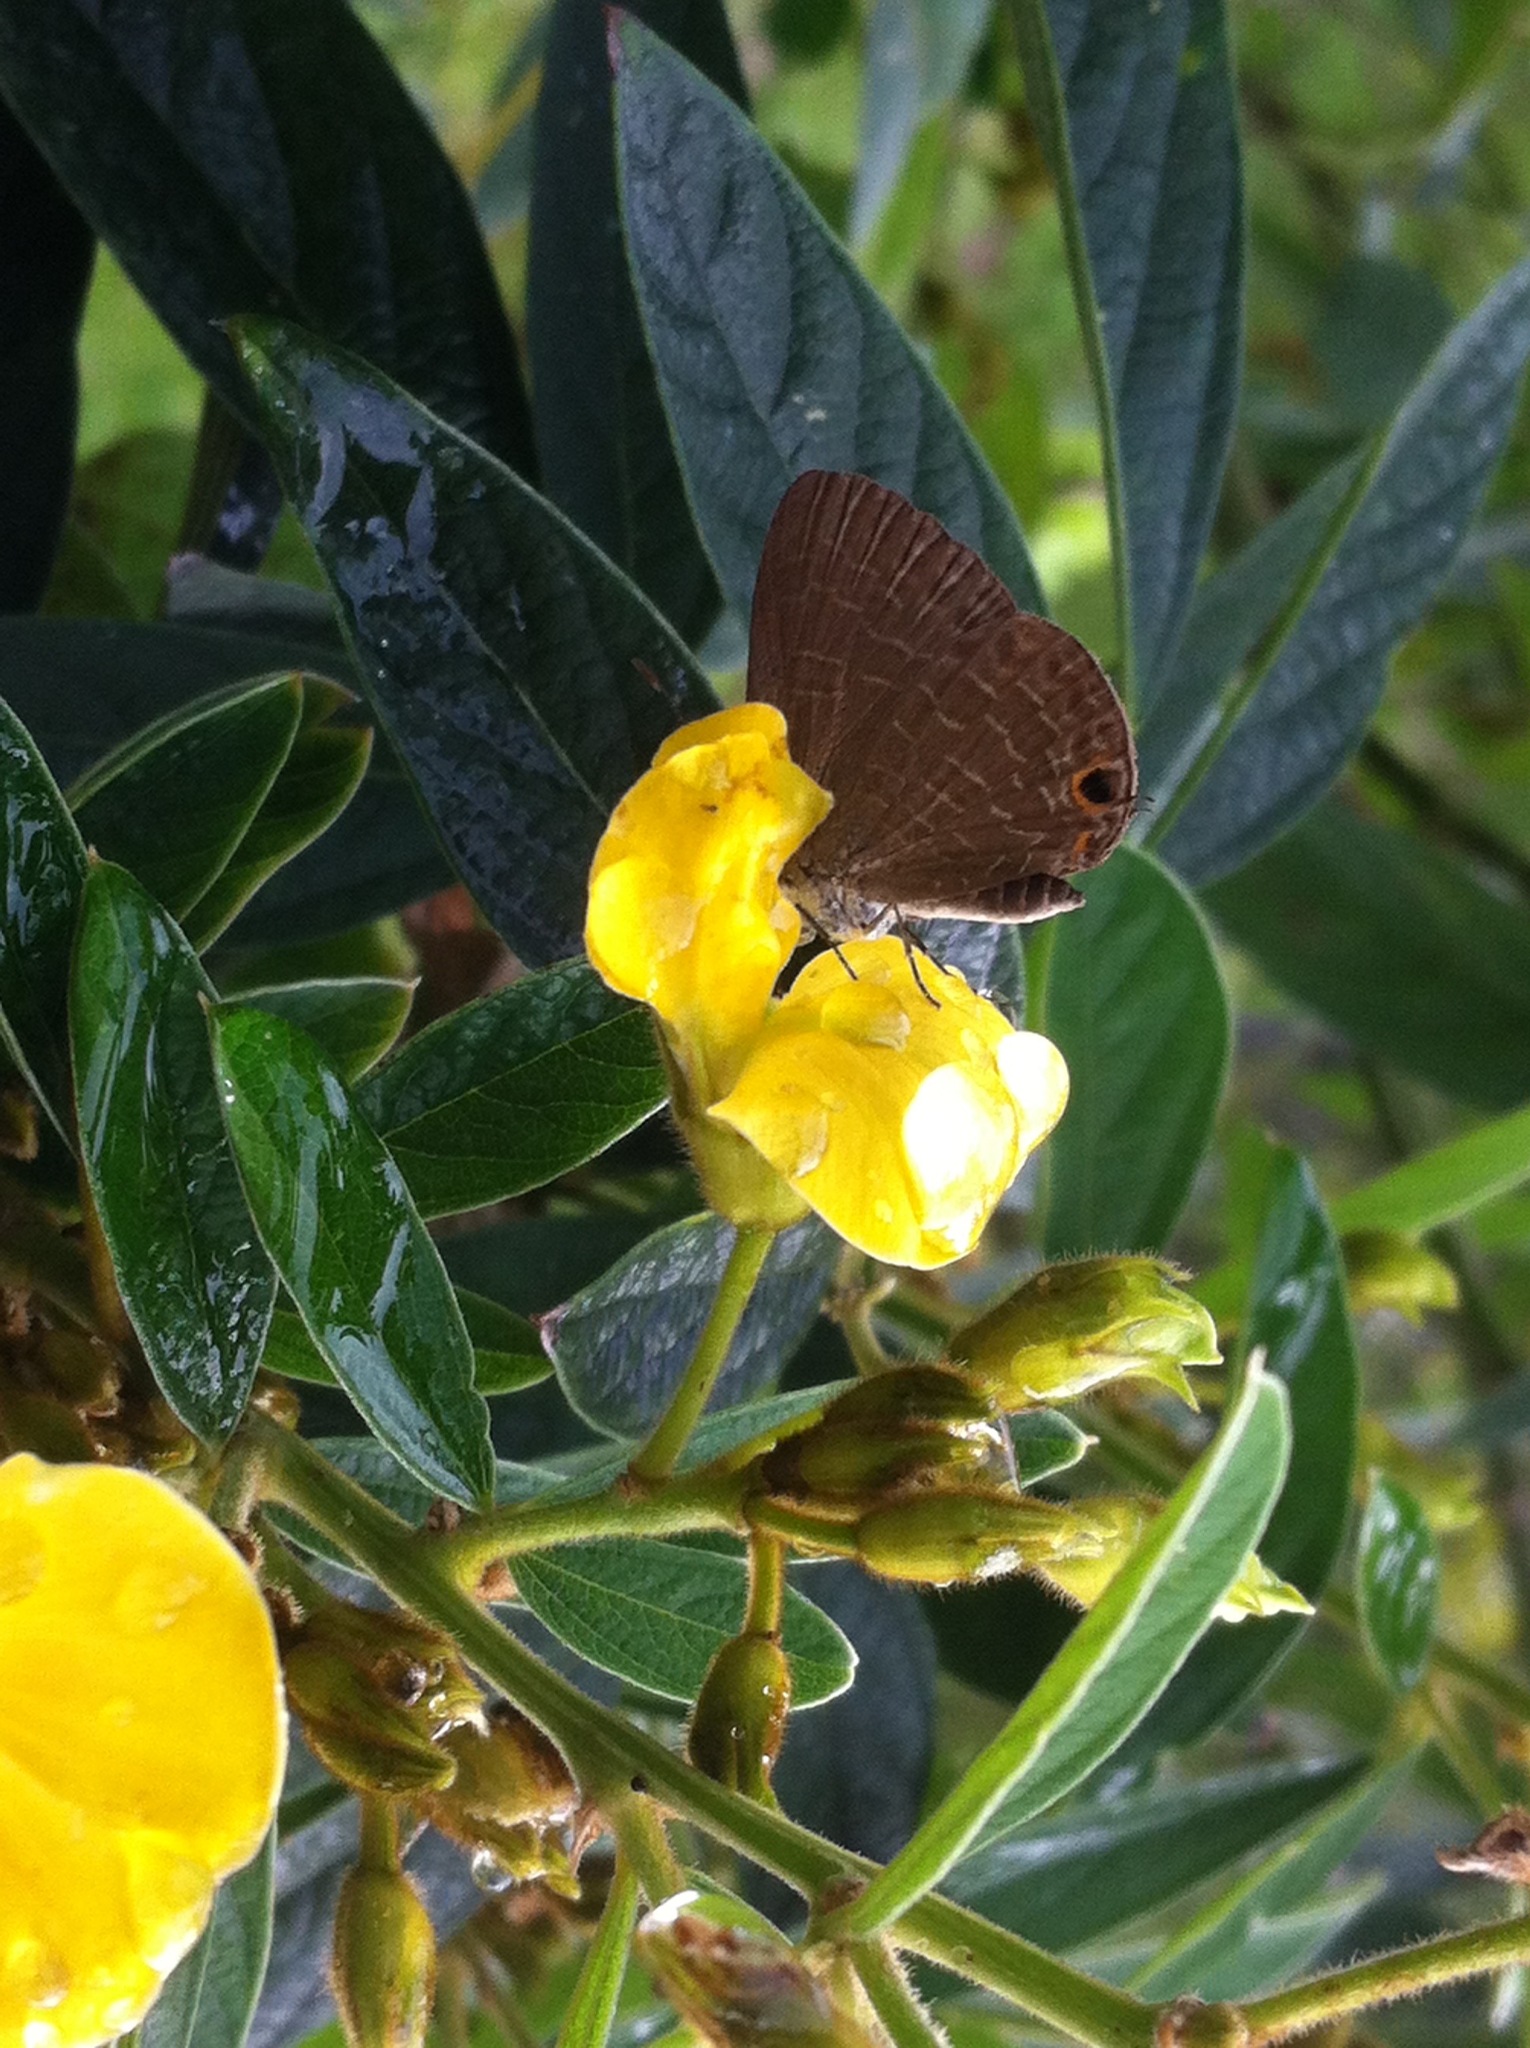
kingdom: Animalia
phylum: Arthropoda
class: Insecta
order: Lepidoptera
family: Lycaenidae
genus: Jamides
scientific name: Jamides bochus
